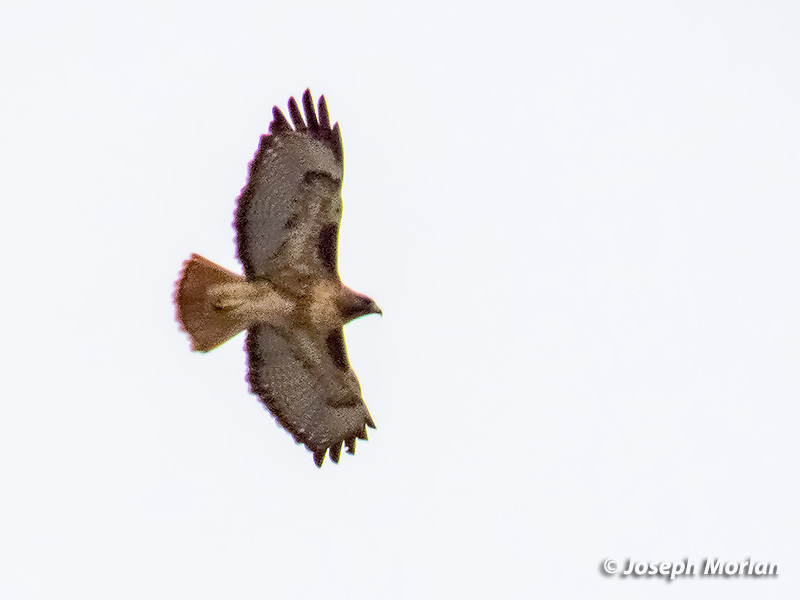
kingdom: Animalia
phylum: Chordata
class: Aves
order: Accipitriformes
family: Accipitridae
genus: Buteo
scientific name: Buteo jamaicensis
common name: Red-tailed hawk
